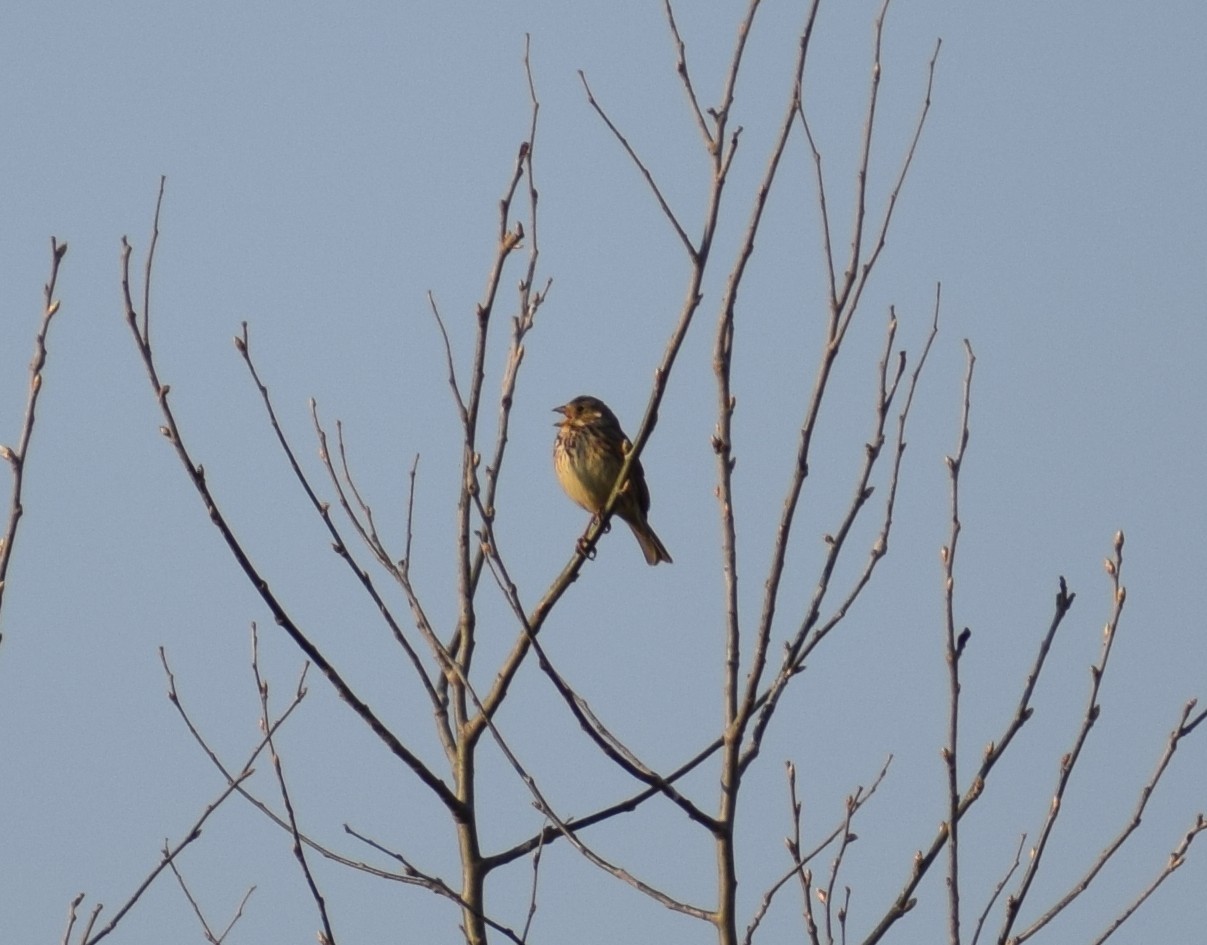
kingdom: Animalia
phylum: Chordata
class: Aves
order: Passeriformes
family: Emberizidae
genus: Emberiza
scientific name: Emberiza calandra
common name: Corn bunting
